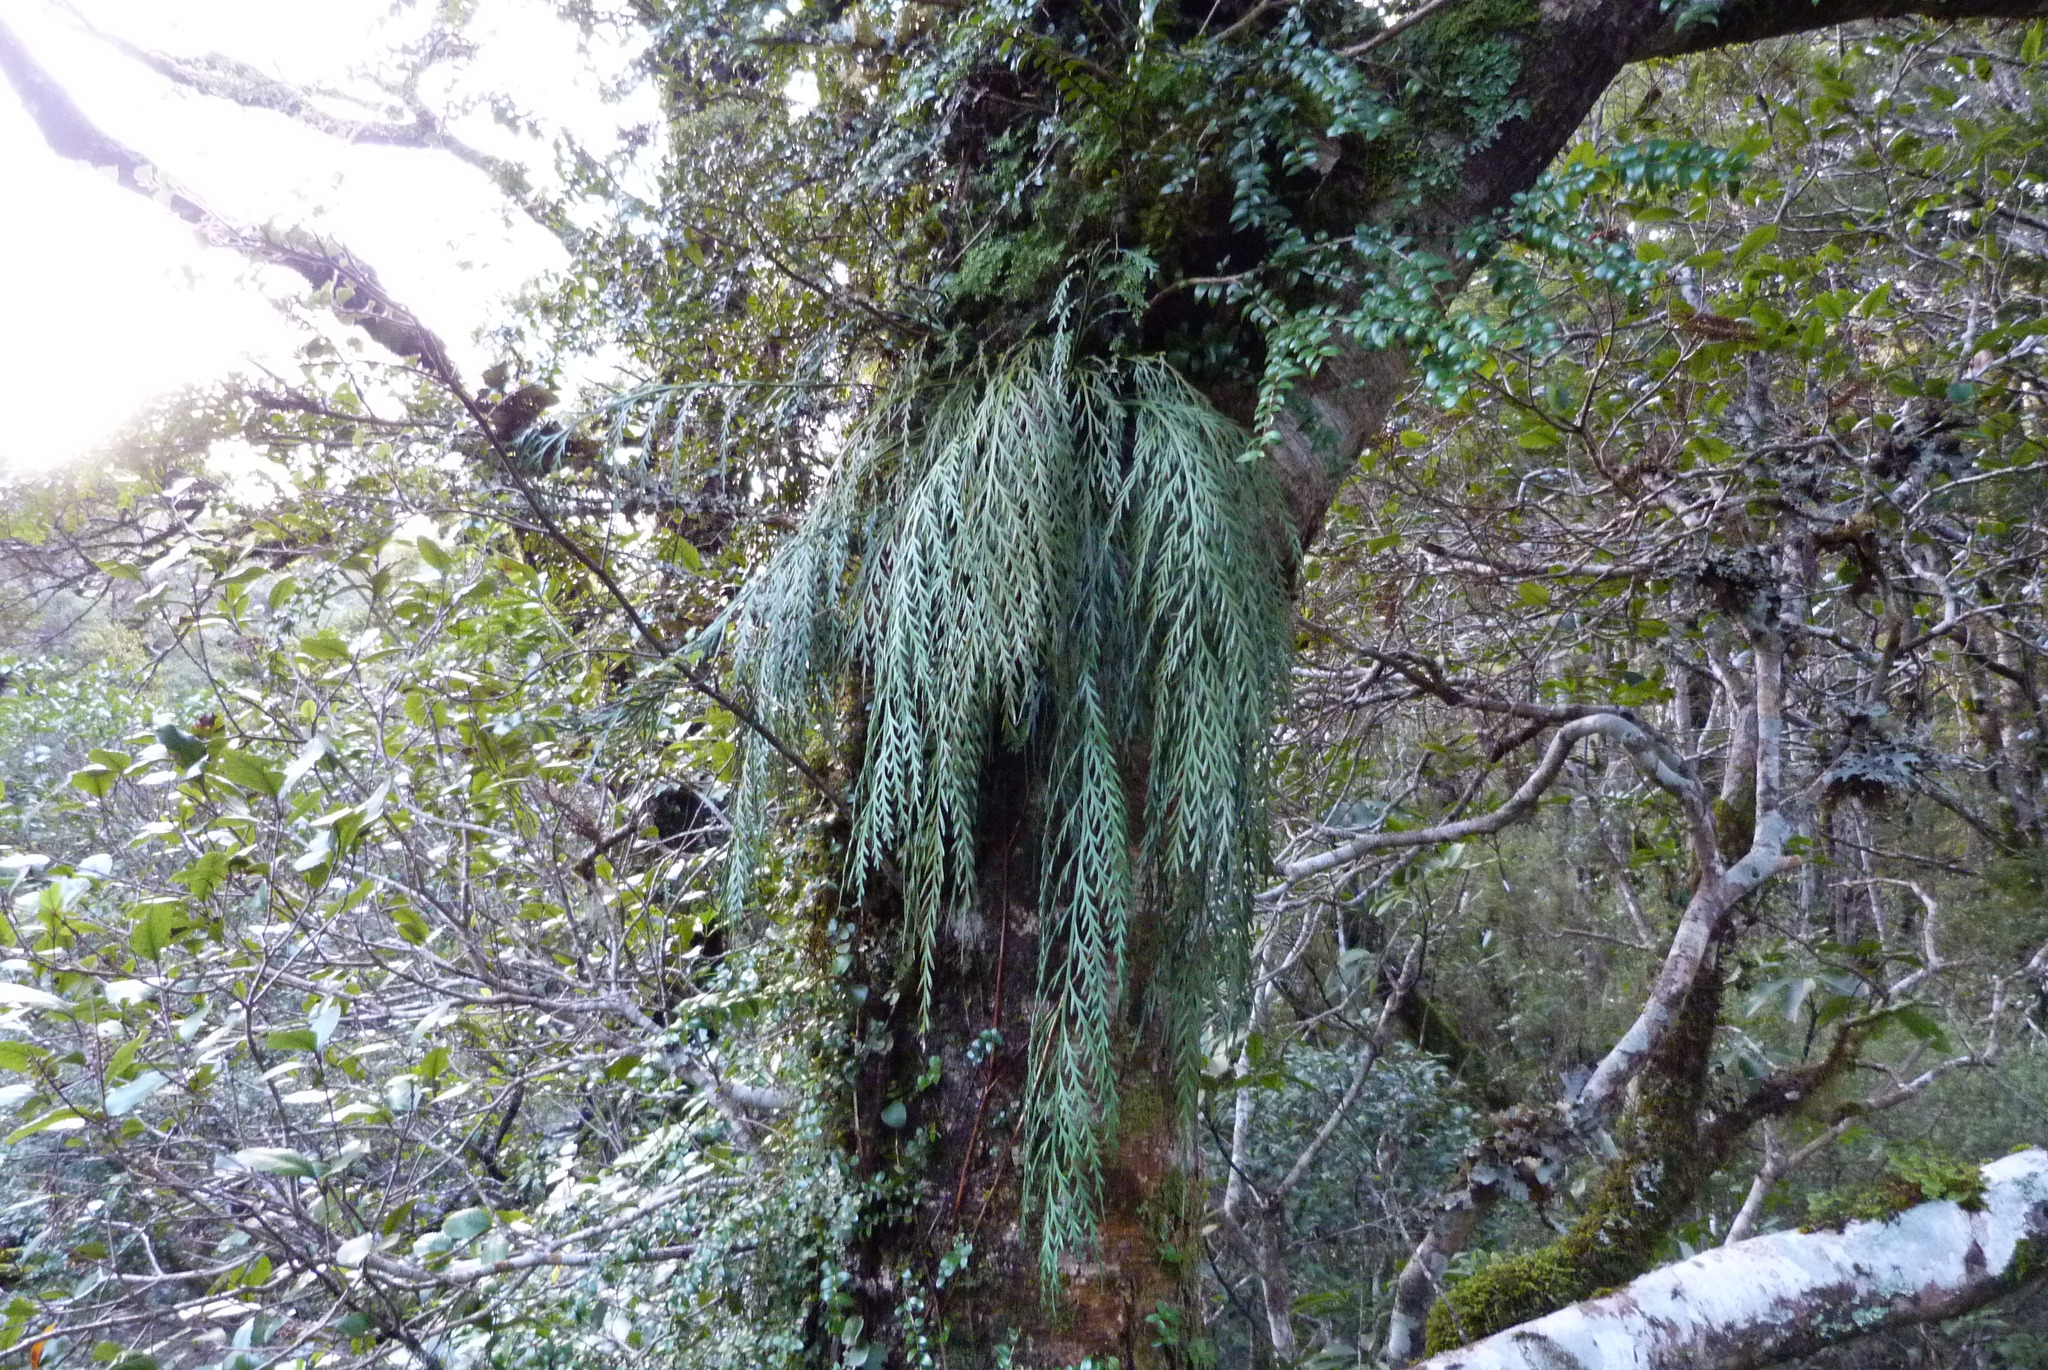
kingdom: Plantae
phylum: Tracheophyta
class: Polypodiopsida
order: Polypodiales
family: Aspleniaceae
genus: Asplenium
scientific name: Asplenium flaccidum
